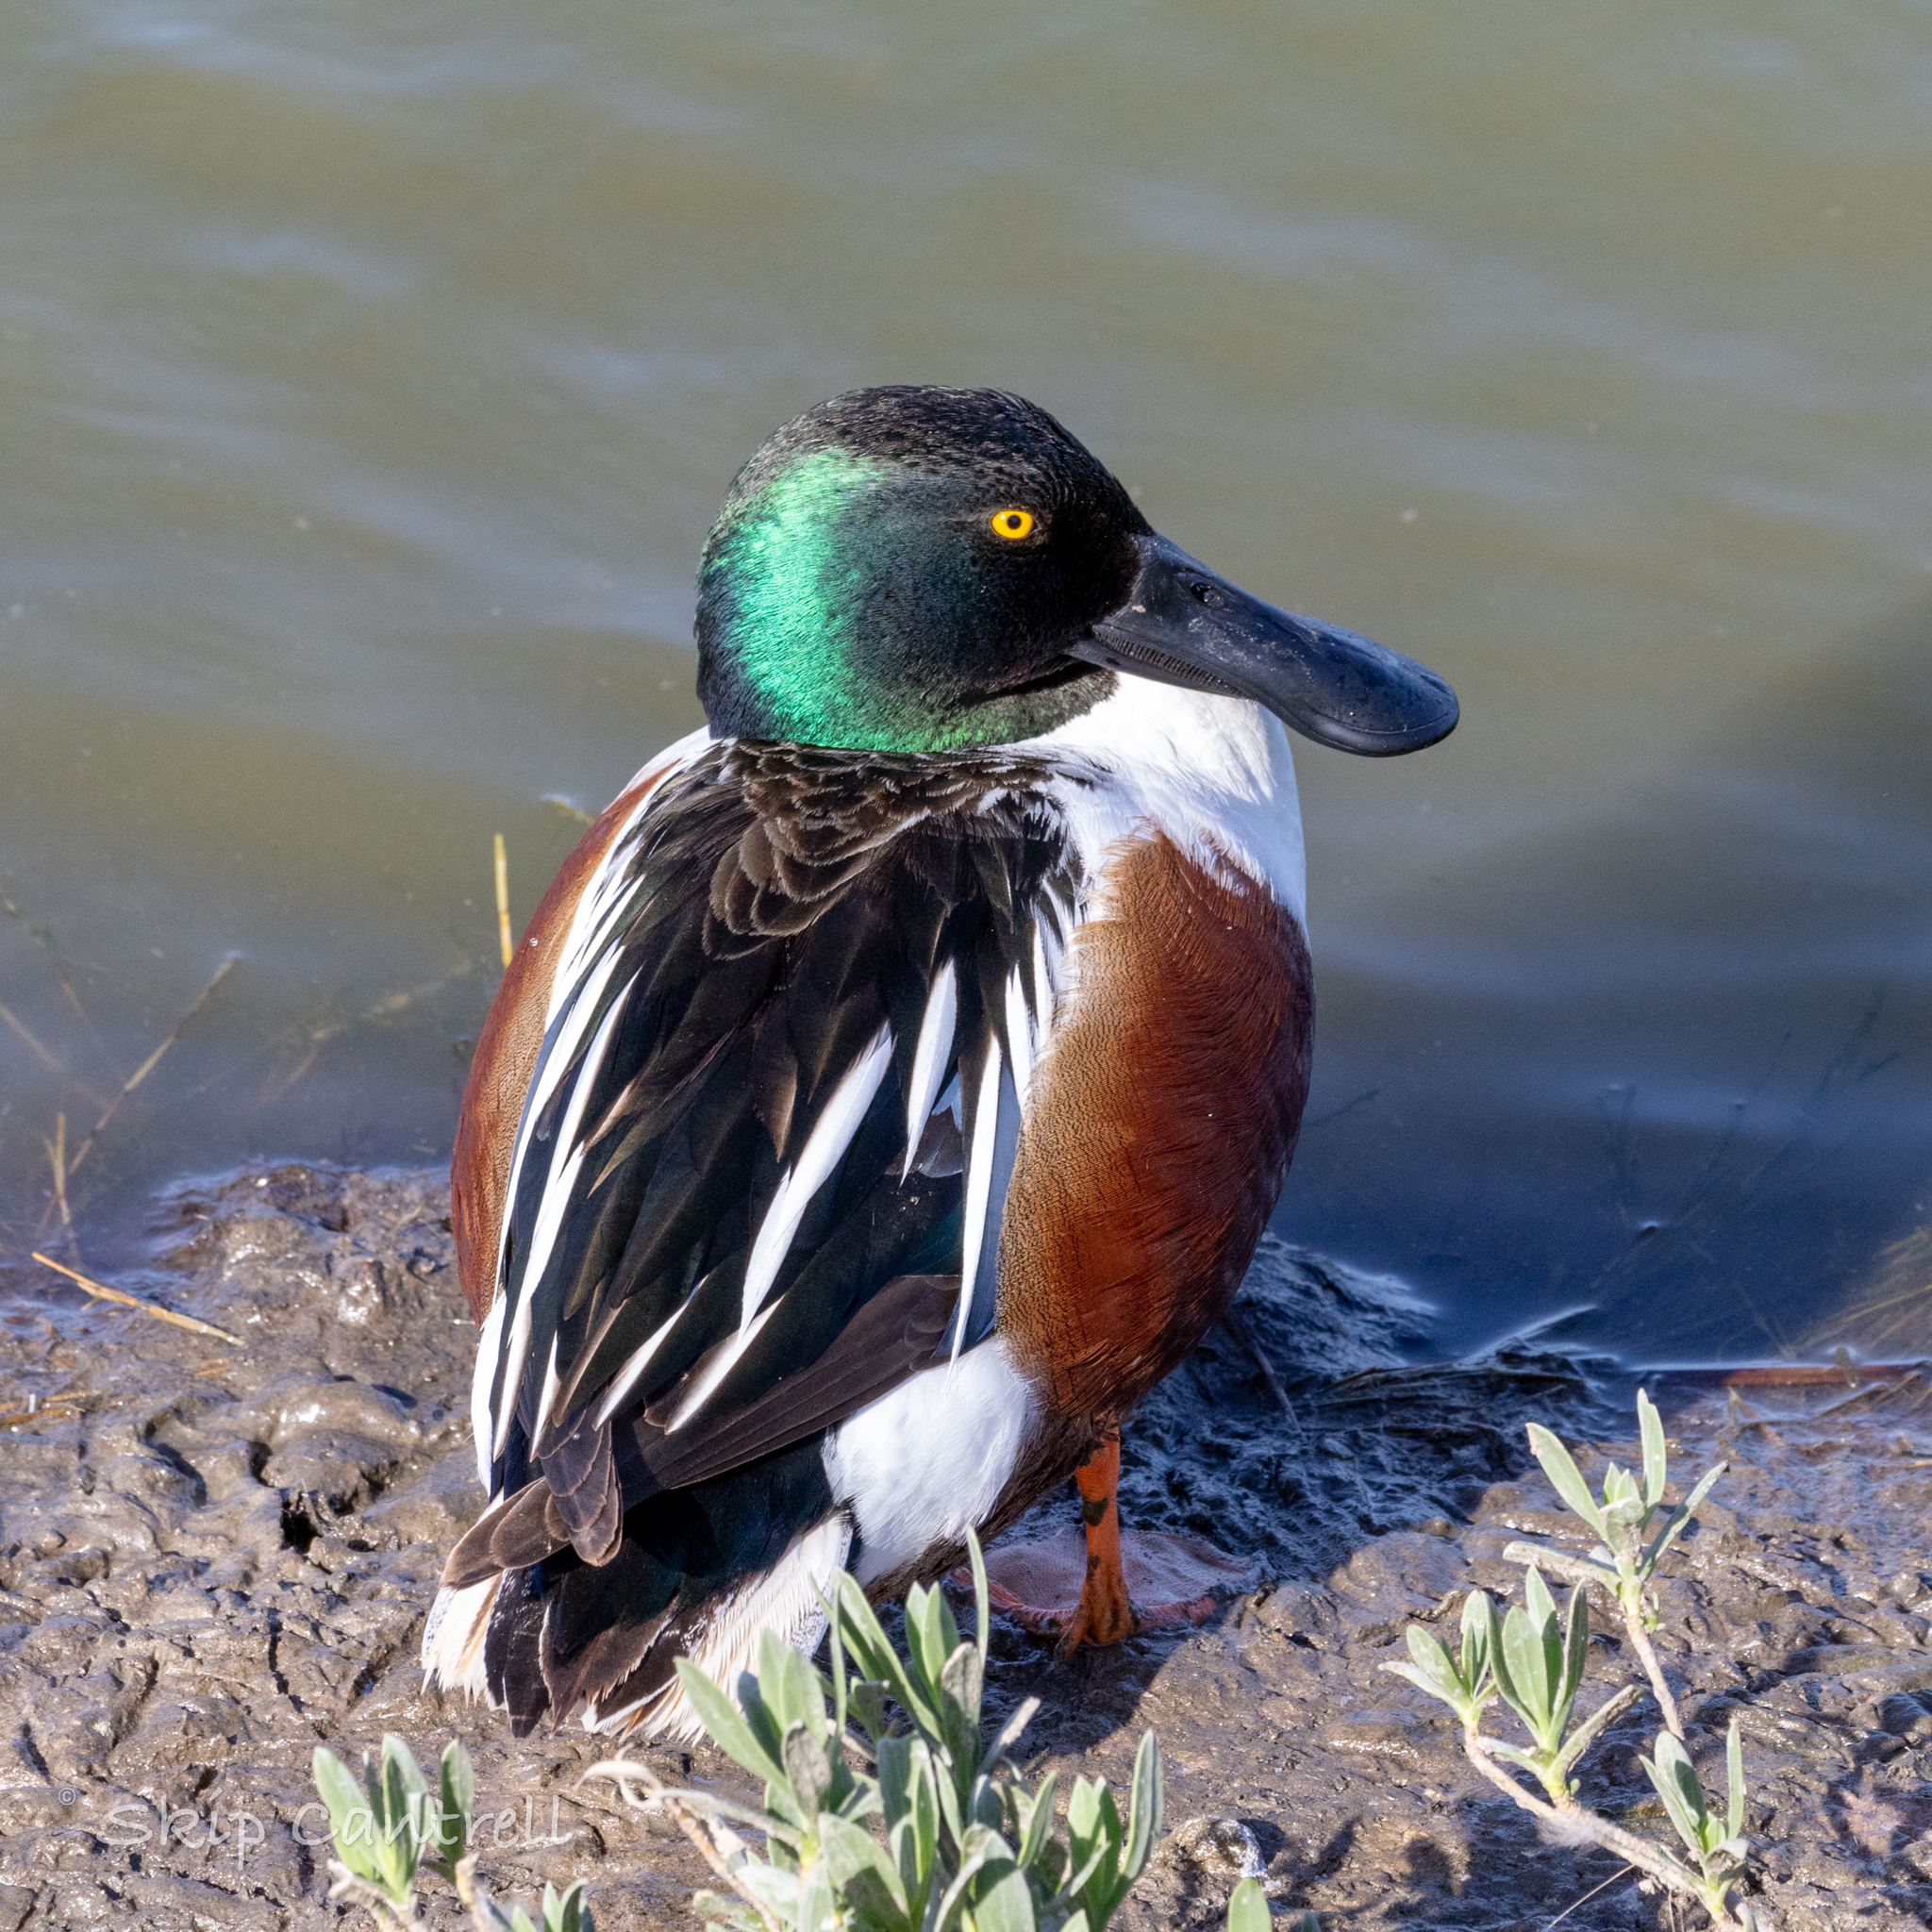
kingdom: Animalia
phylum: Chordata
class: Aves
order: Anseriformes
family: Anatidae
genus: Spatula
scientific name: Spatula clypeata
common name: Northern shoveler
